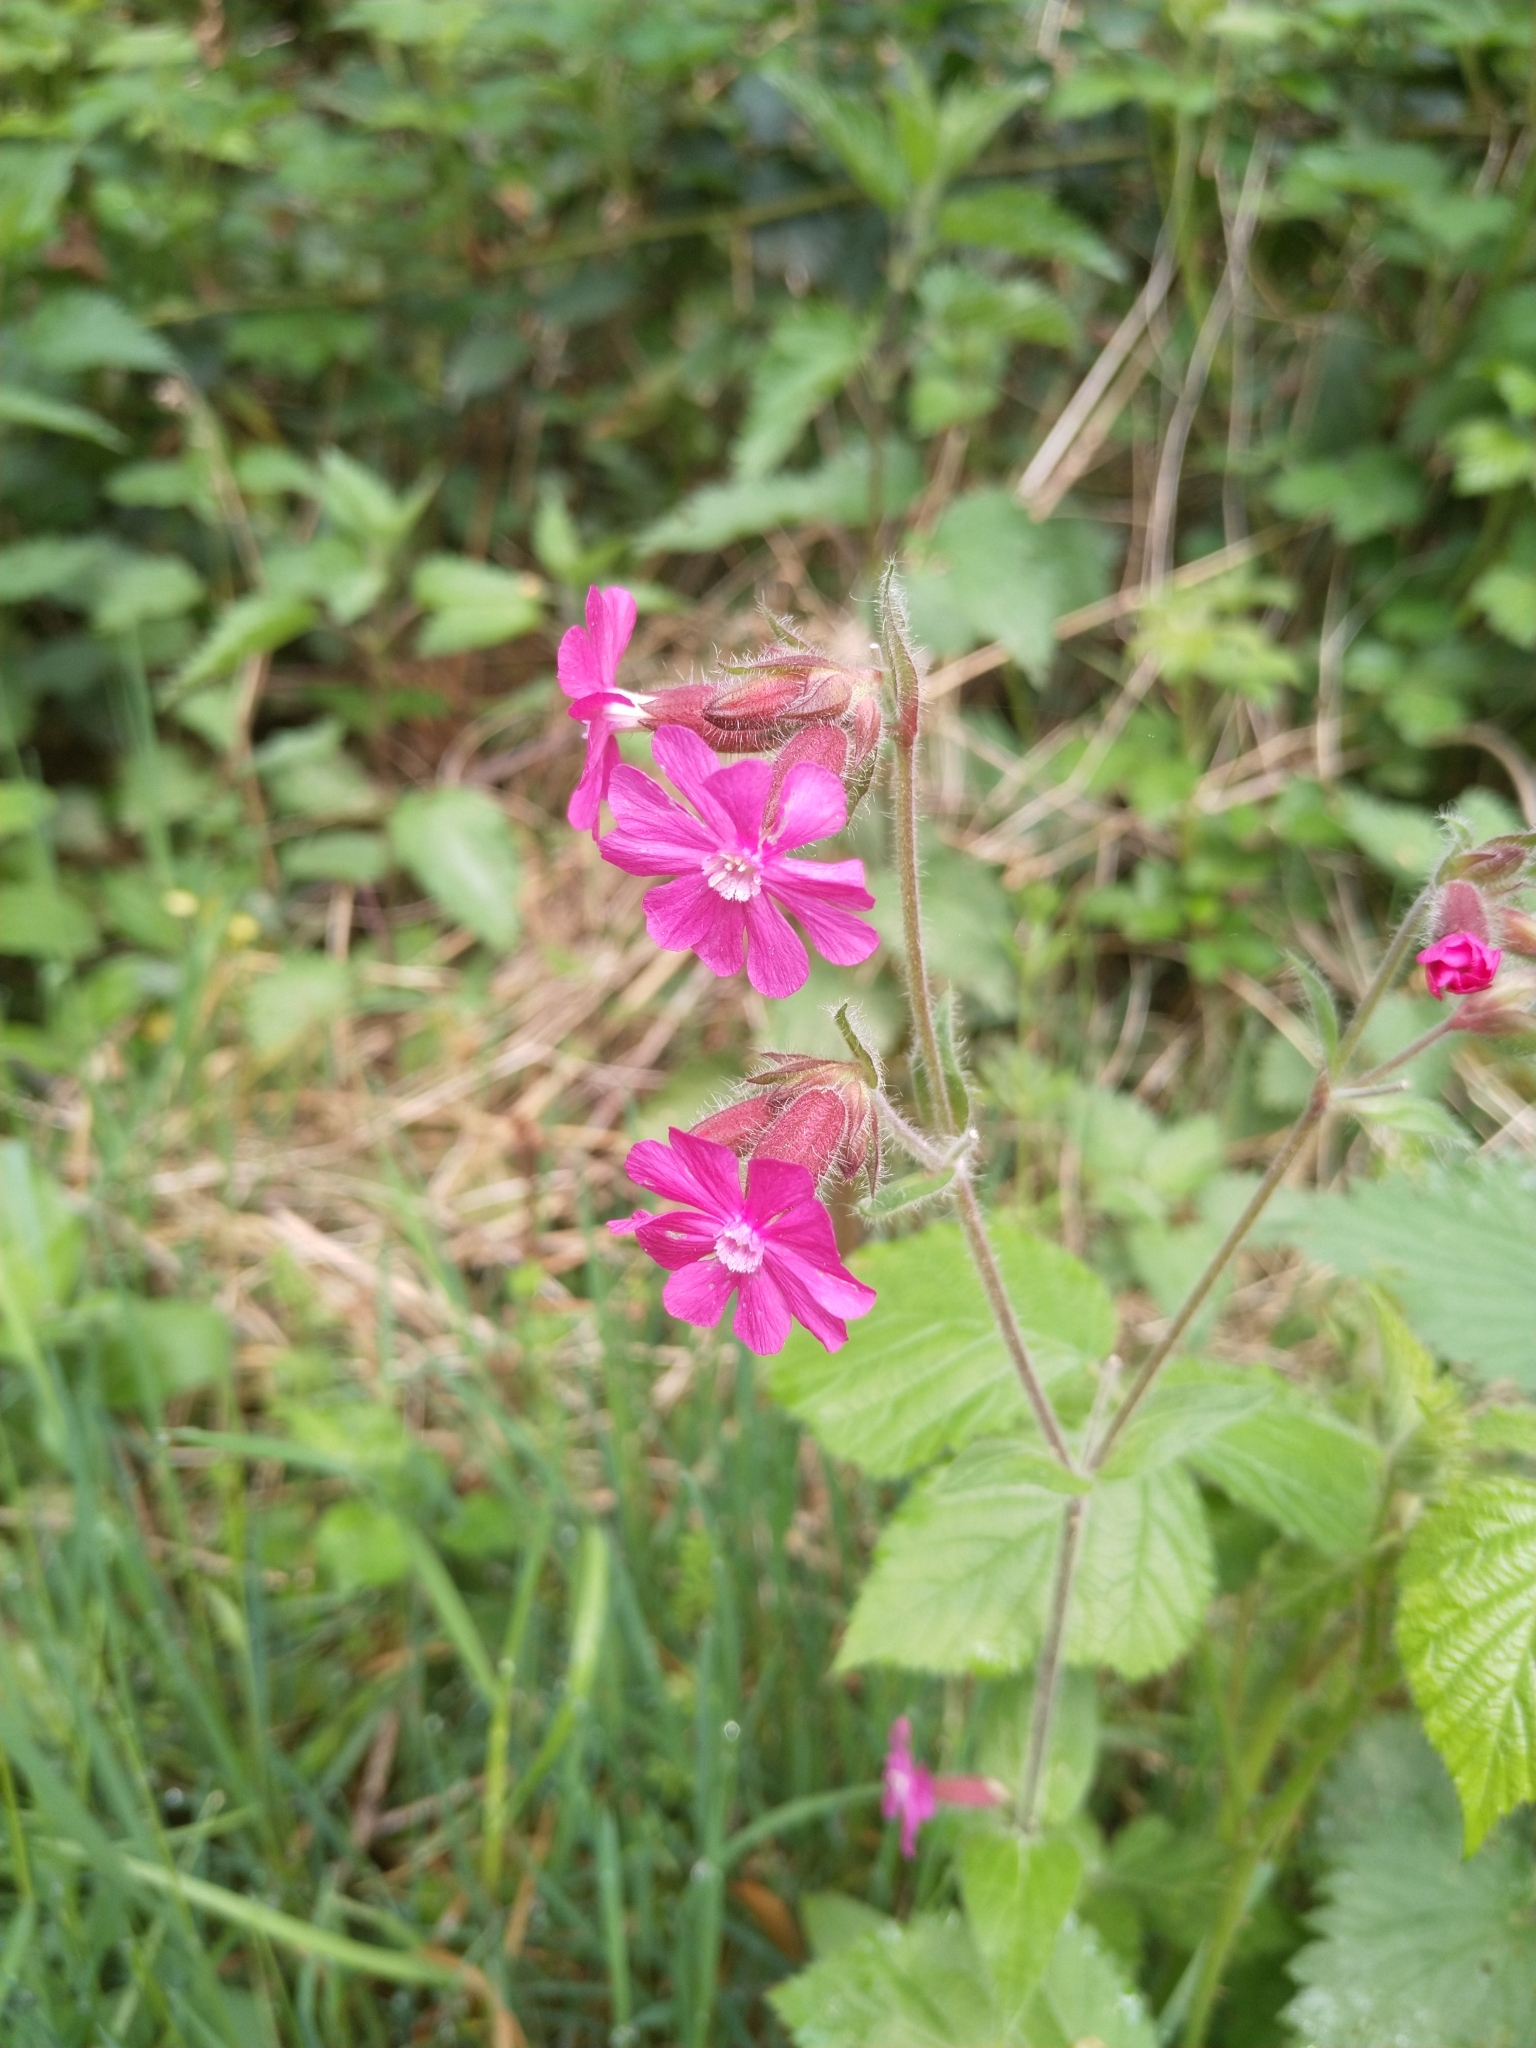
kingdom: Plantae
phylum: Tracheophyta
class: Magnoliopsida
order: Caryophyllales
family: Caryophyllaceae
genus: Silene
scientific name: Silene dioica
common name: Red campion
